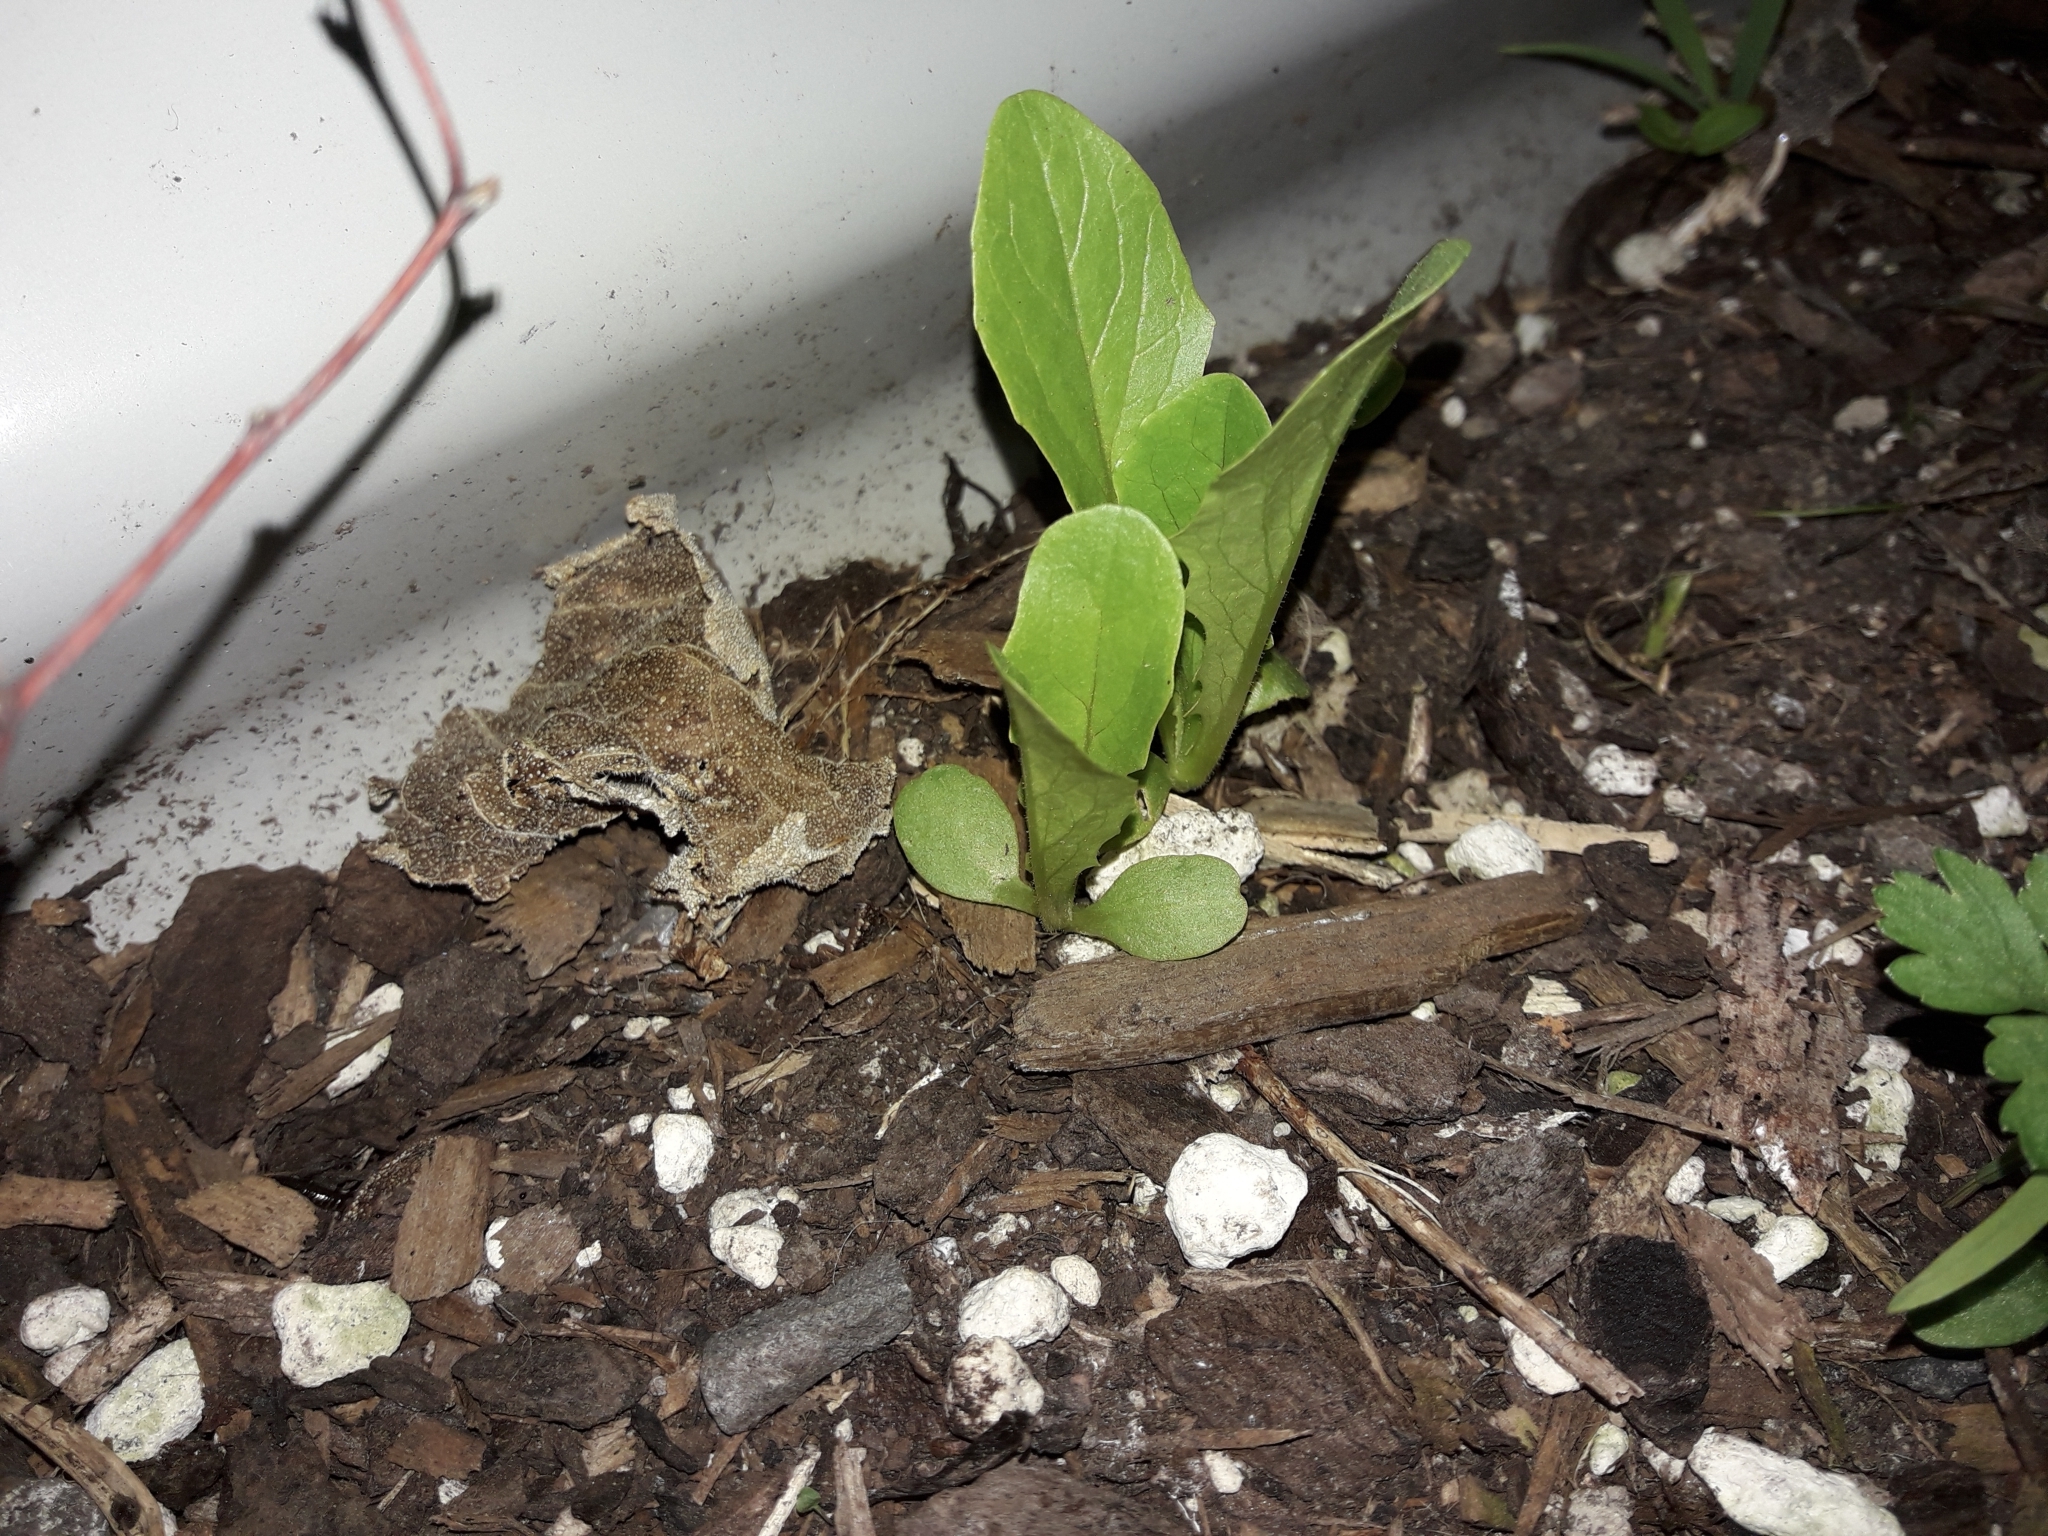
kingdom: Plantae
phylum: Tracheophyta
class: Magnoliopsida
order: Asterales
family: Asteraceae
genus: Lactuca
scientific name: Lactuca sativa
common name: Garden lettuce
